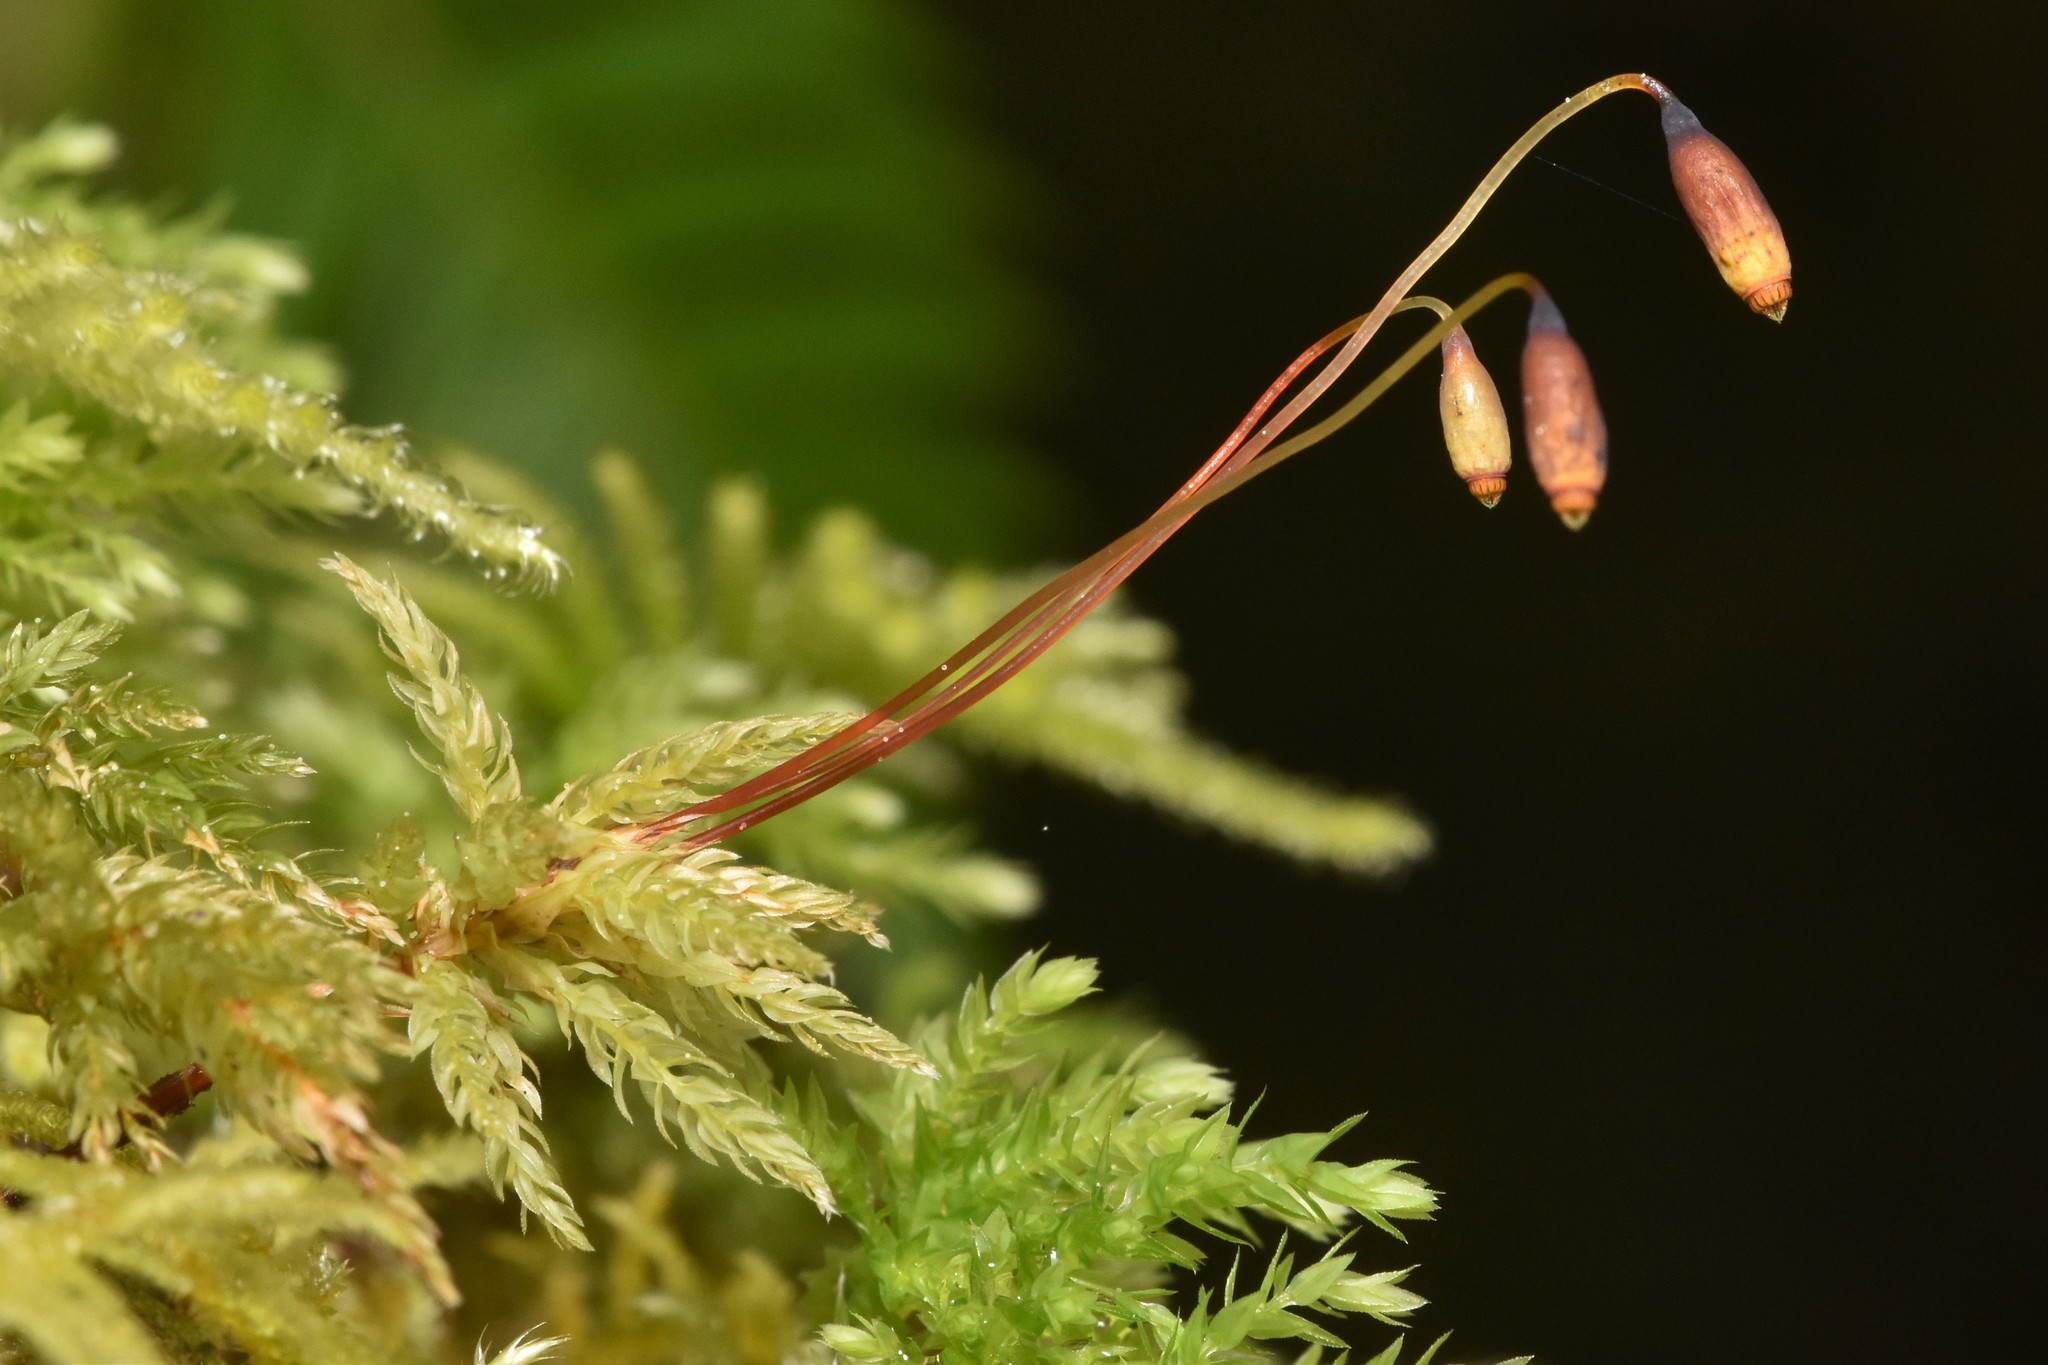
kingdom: Plantae
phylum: Bryophyta
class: Bryopsida
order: Bryales
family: Mniaceae
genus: Leucolepis
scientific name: Leucolepis acanthoneura
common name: Leucolepis umbrella moss
